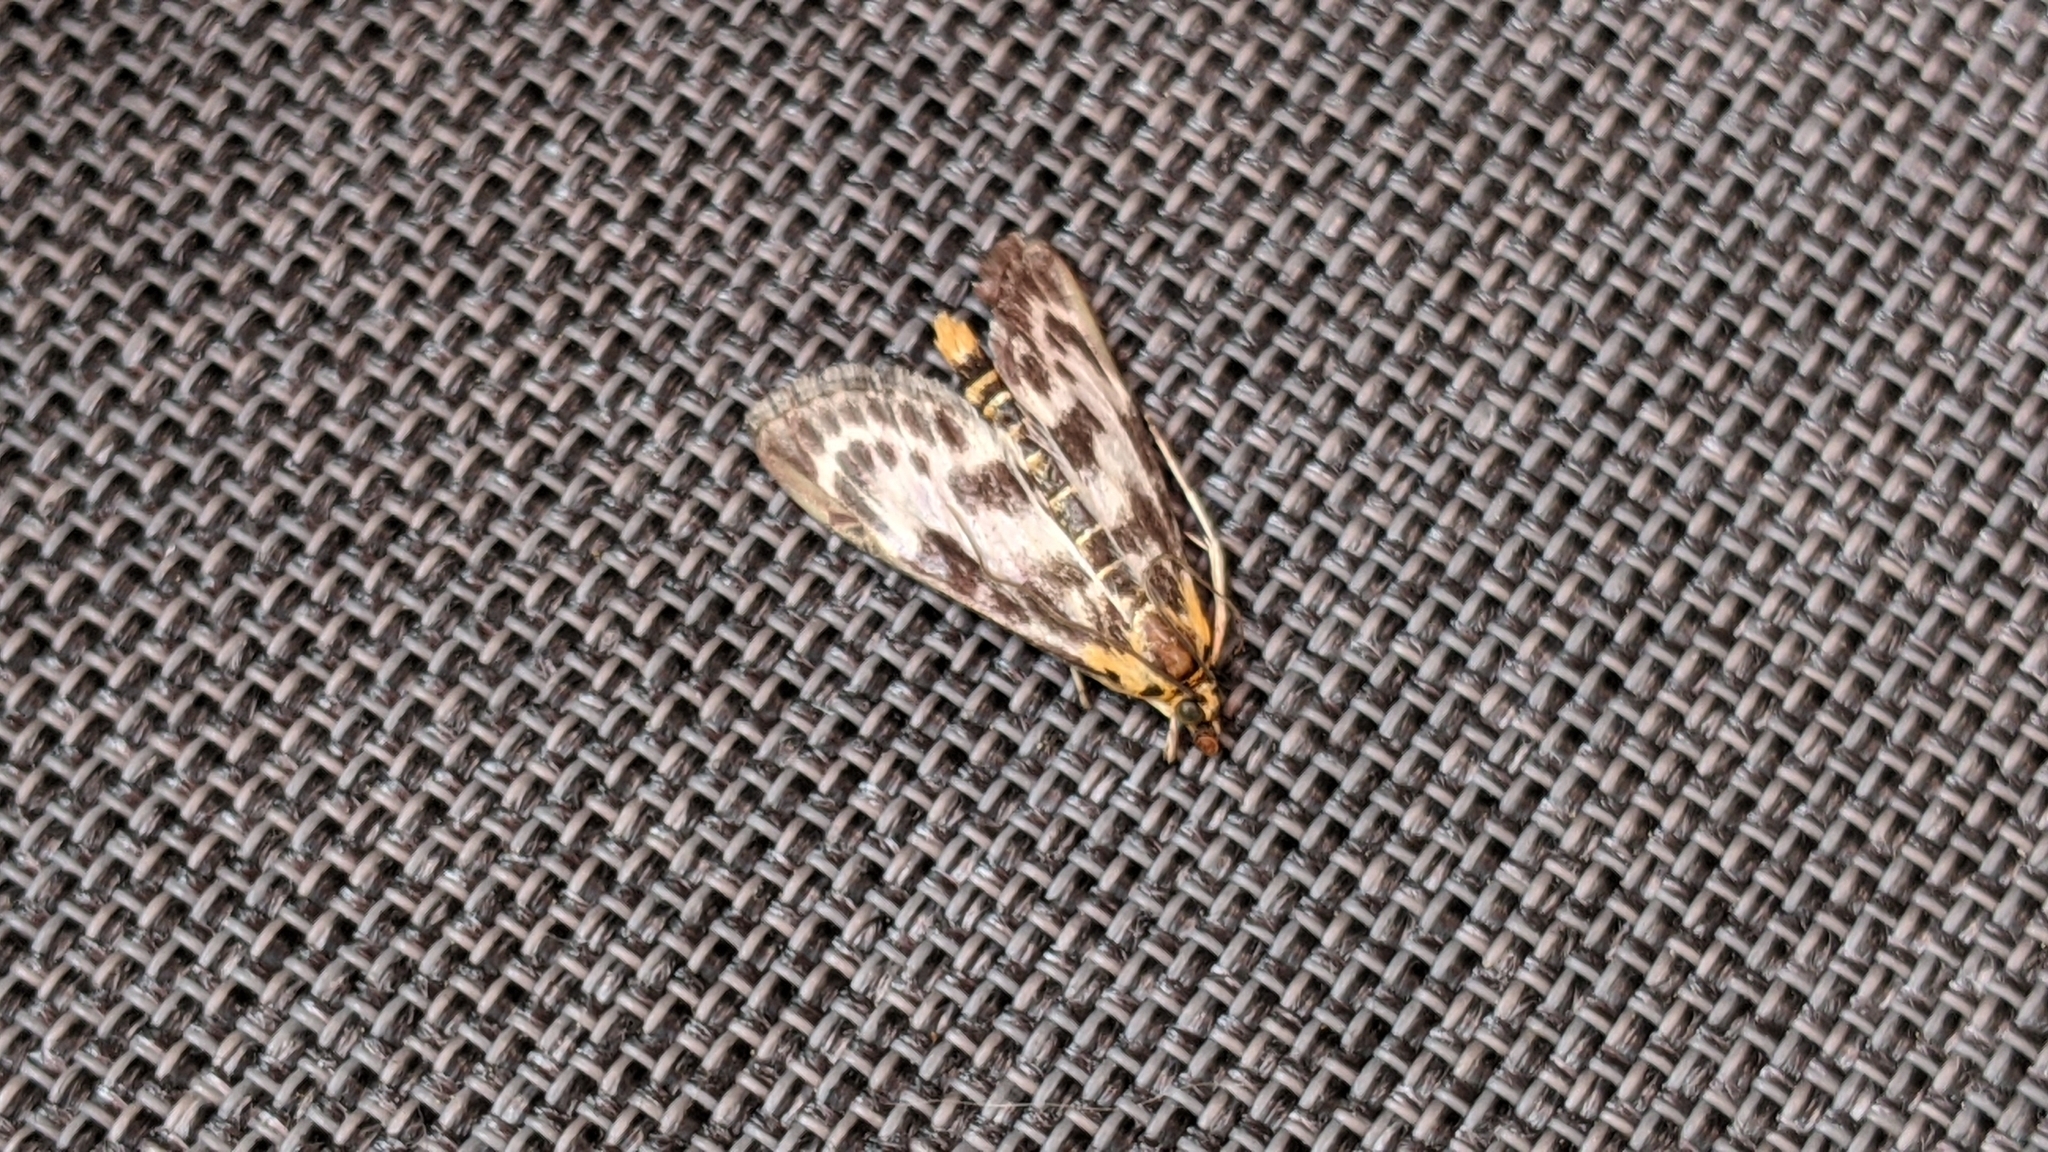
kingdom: Animalia
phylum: Arthropoda
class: Insecta
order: Lepidoptera
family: Crambidae
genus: Anania
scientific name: Anania hortulata
